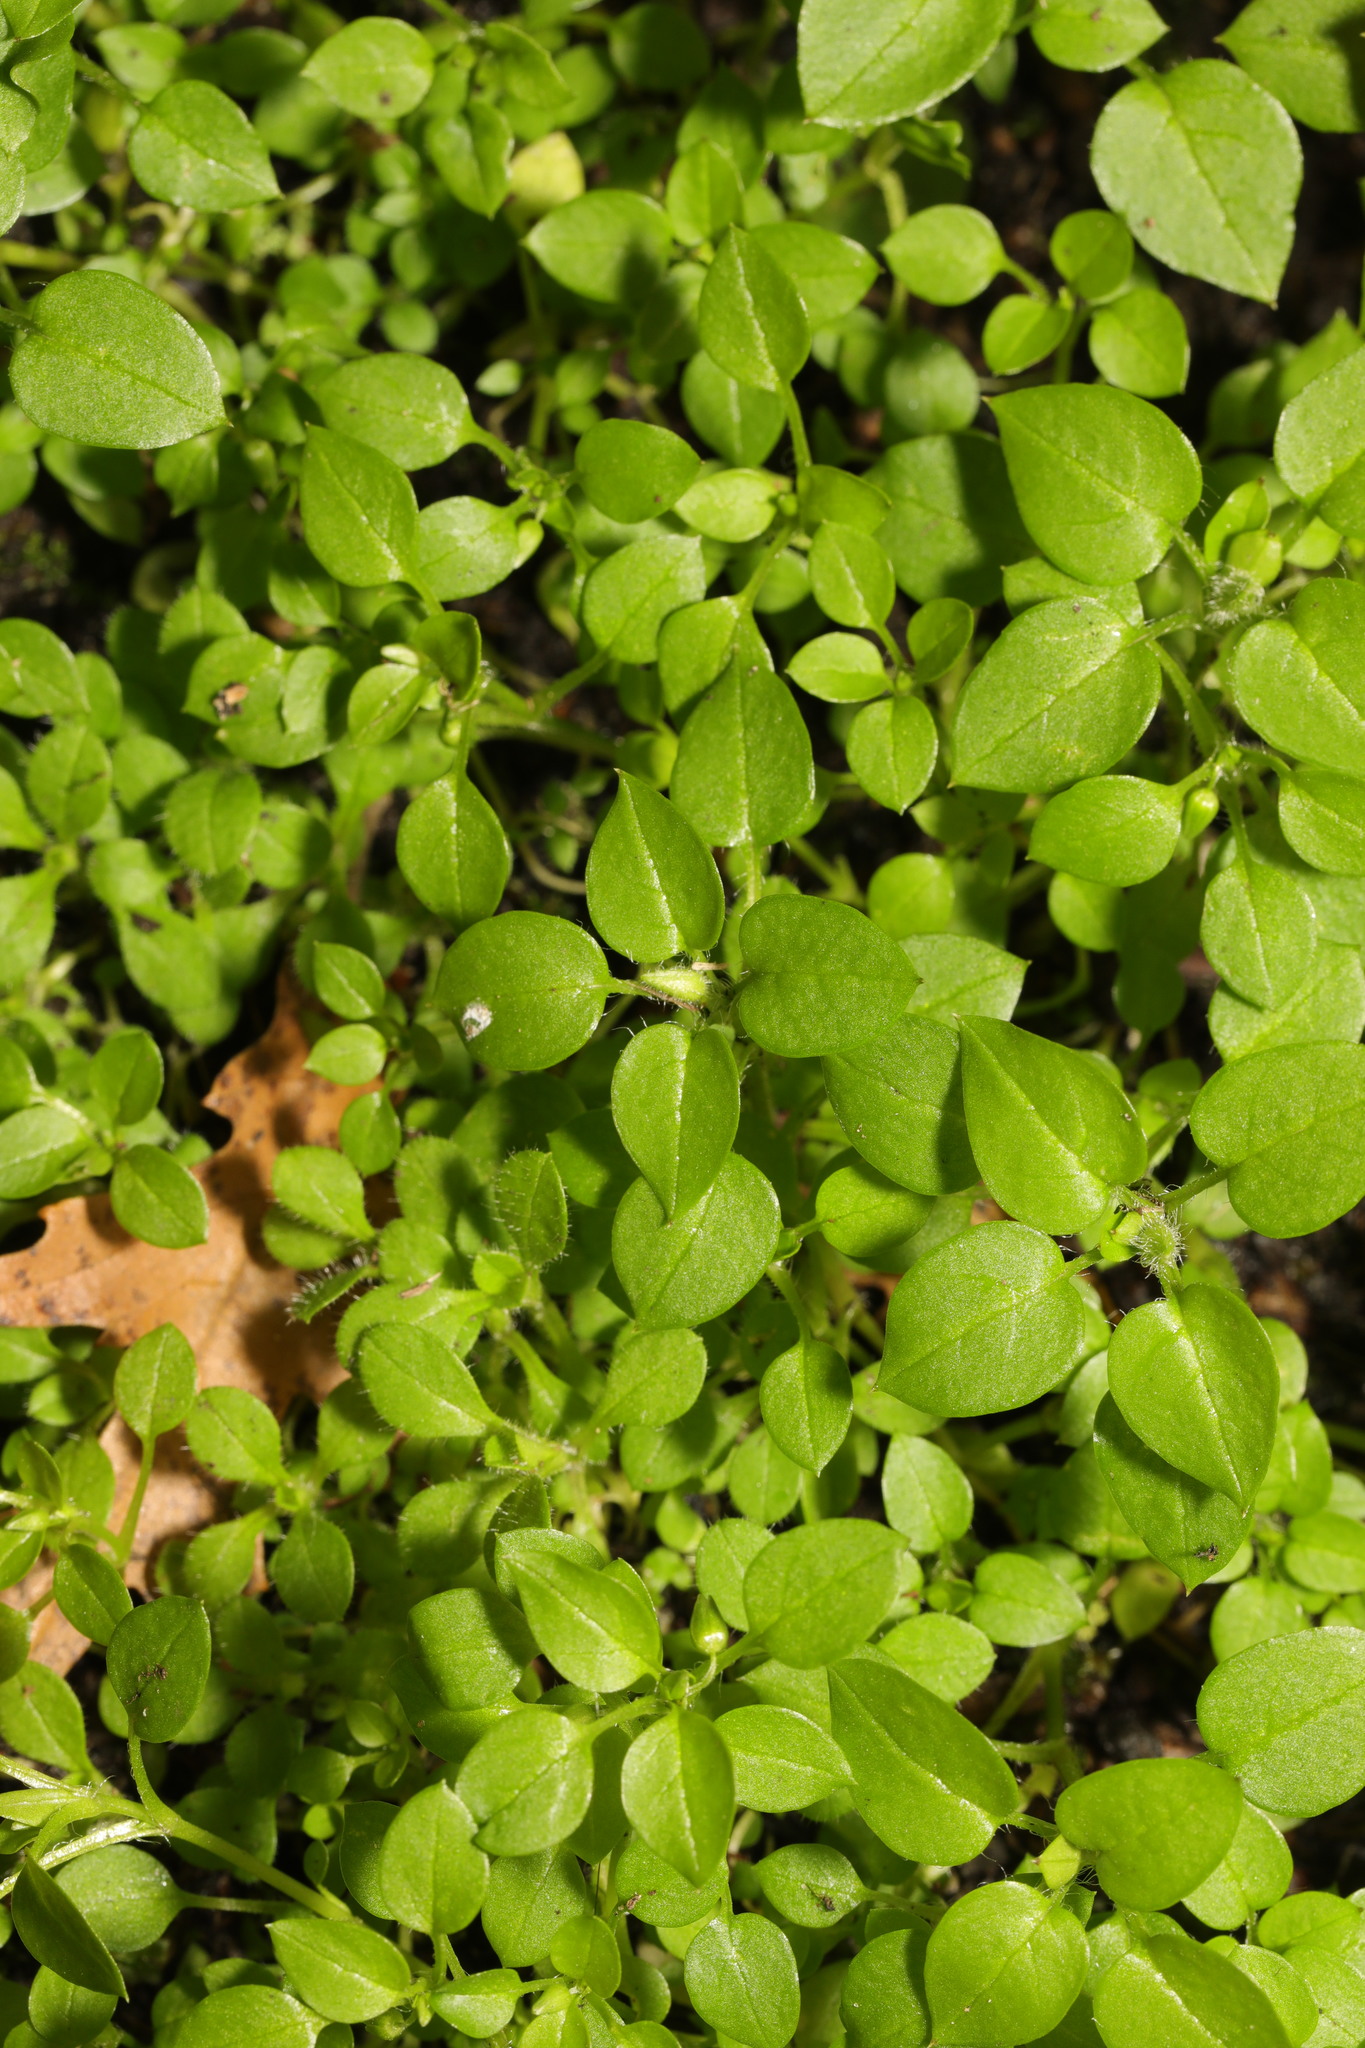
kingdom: Plantae
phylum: Tracheophyta
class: Magnoliopsida
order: Caryophyllales
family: Caryophyllaceae
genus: Stellaria
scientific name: Stellaria media
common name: Common chickweed
